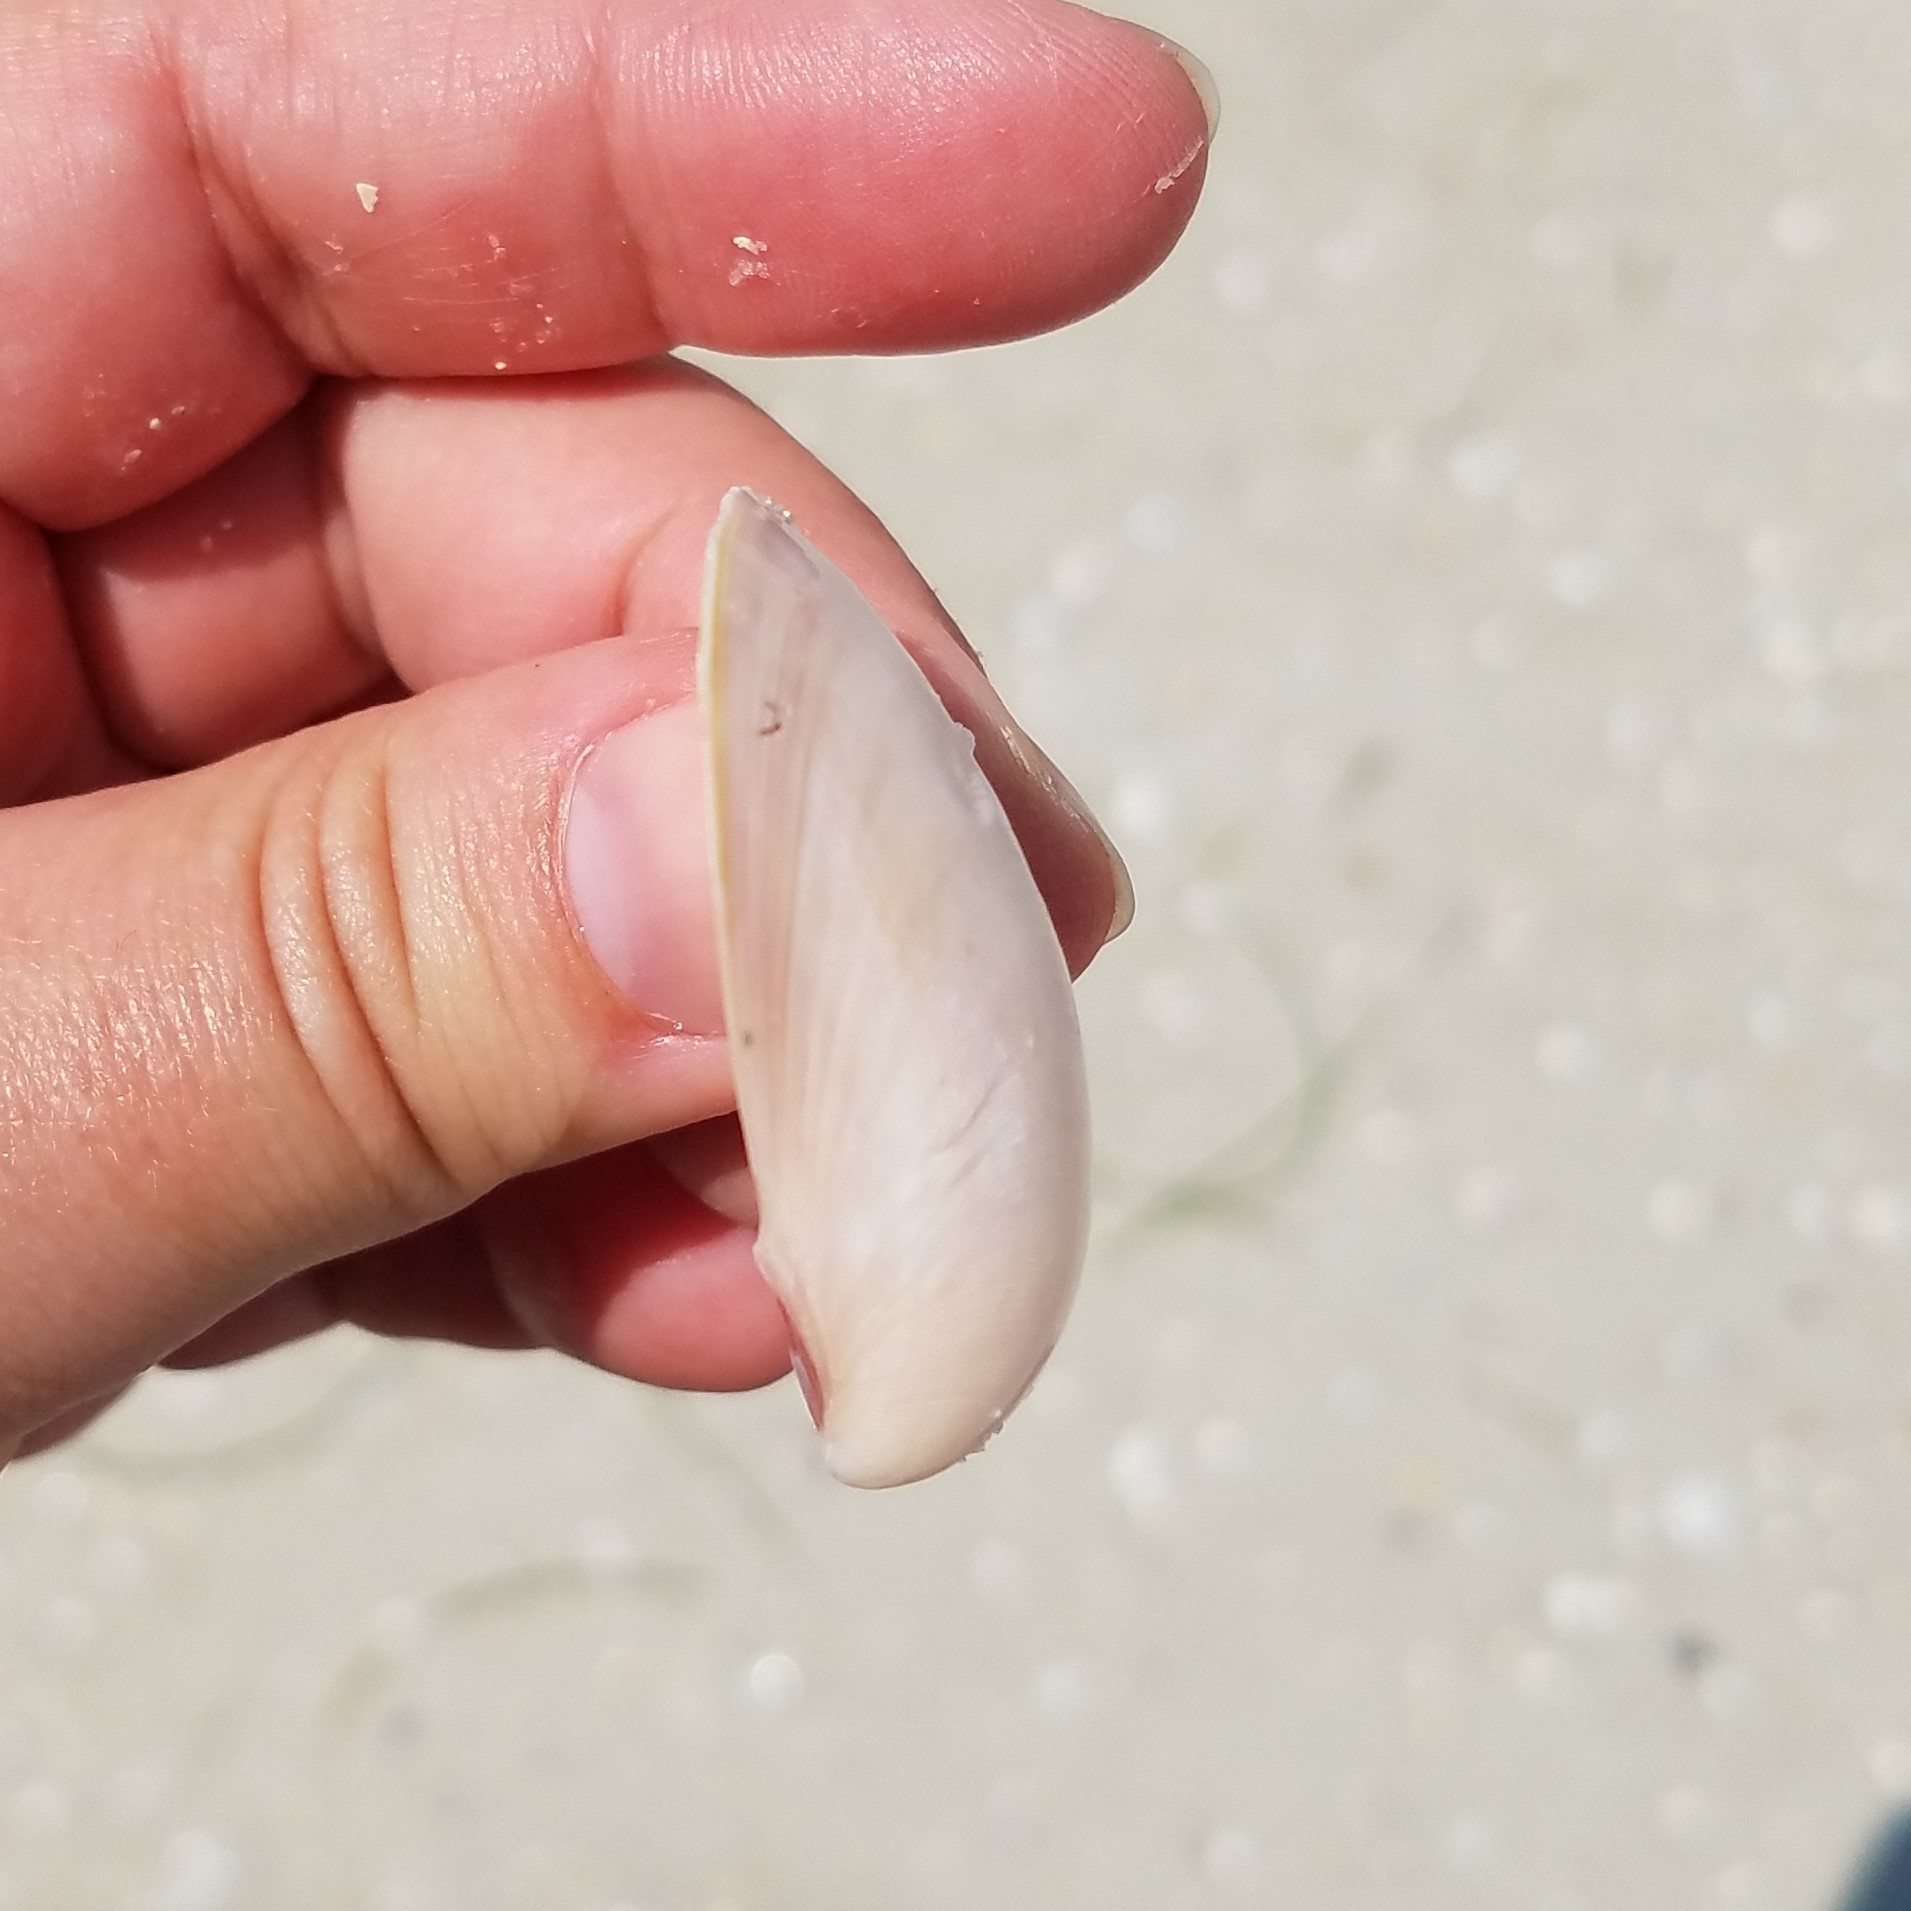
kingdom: Animalia
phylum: Mollusca
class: Bivalvia
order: Cardiida
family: Cardiidae
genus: Laevicardium
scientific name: Laevicardium serratum
